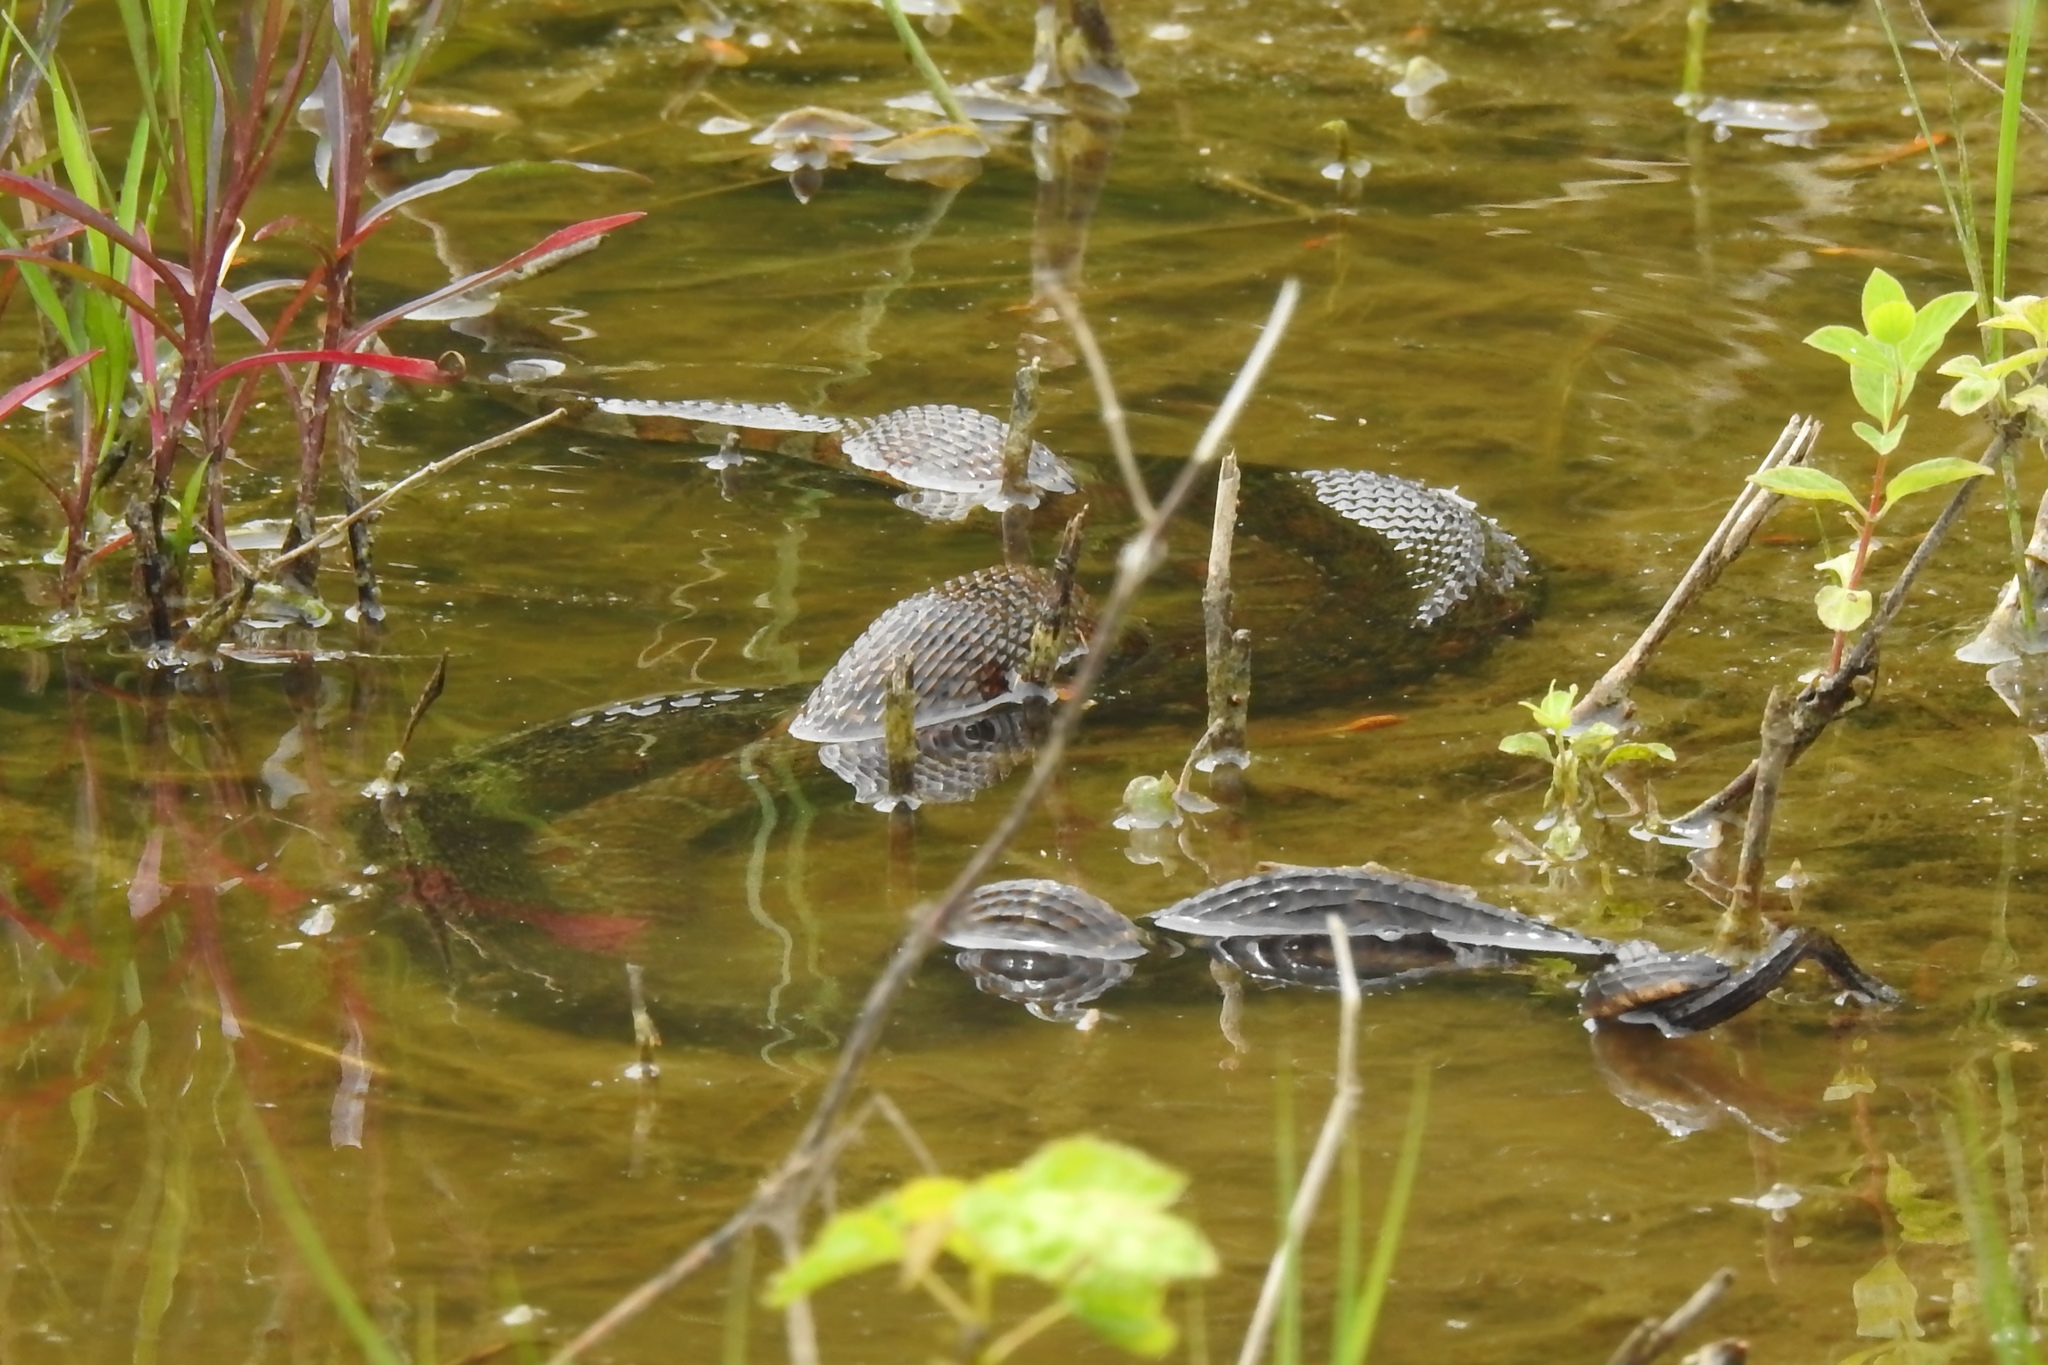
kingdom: Animalia
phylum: Chordata
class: Squamata
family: Colubridae
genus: Nerodia
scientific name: Nerodia sipedon
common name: Northern water snake
